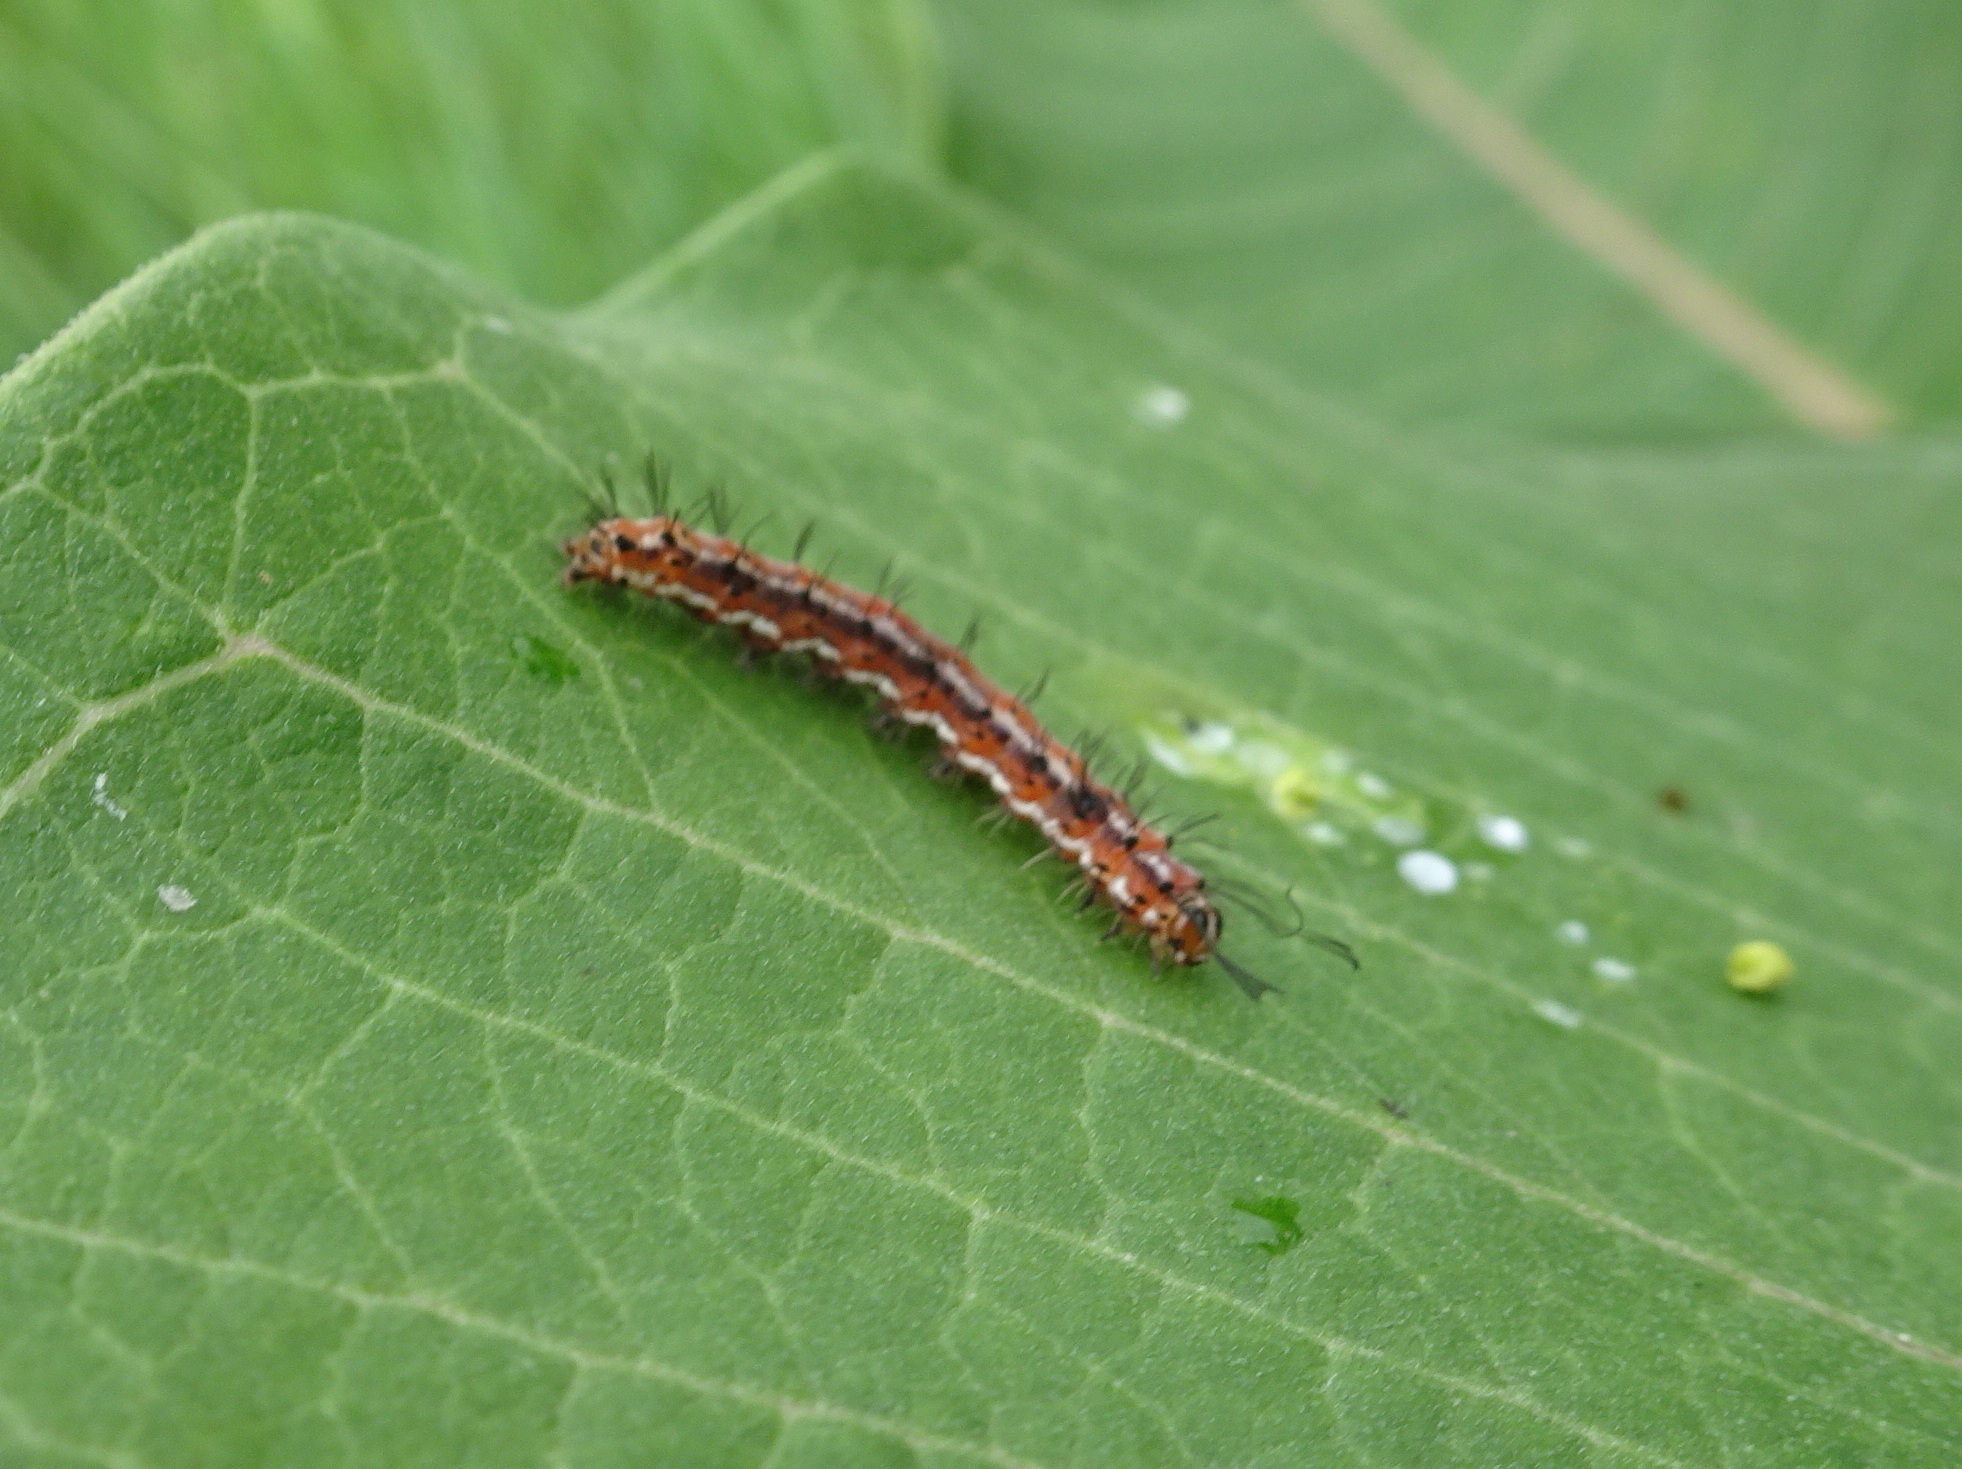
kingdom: Animalia
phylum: Arthropoda
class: Insecta
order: Lepidoptera
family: Nymphalidae
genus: Euptoieta
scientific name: Euptoieta claudia
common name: Variegated fritillary
